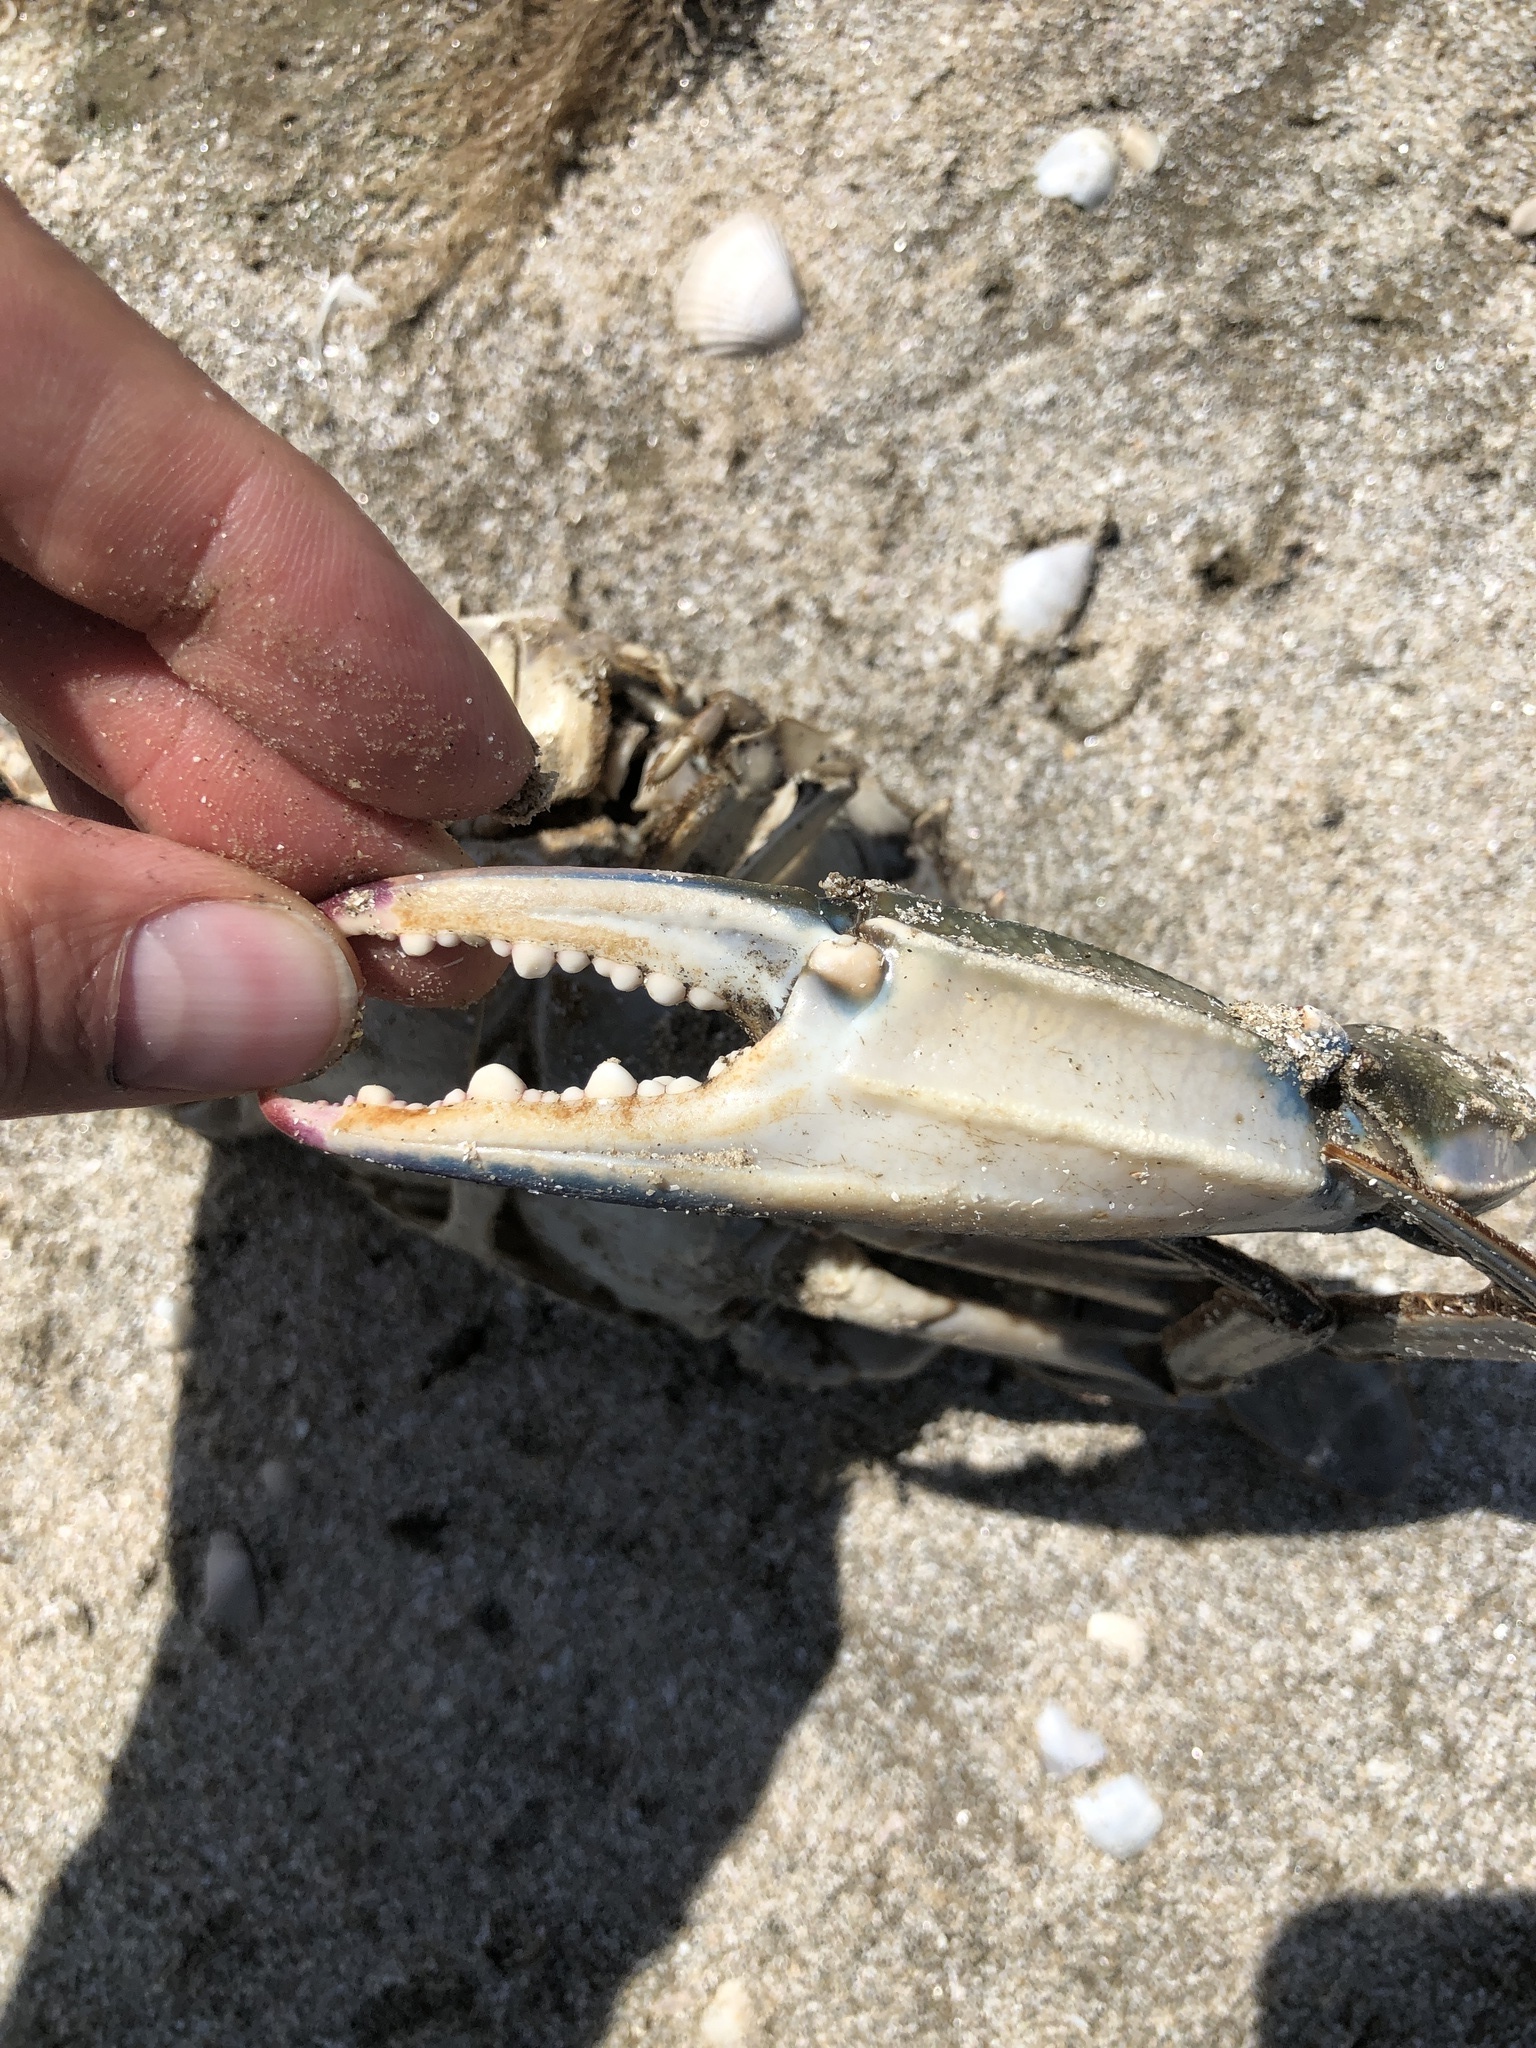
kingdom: Animalia
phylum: Arthropoda
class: Malacostraca
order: Decapoda
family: Portunidae
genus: Callinectes
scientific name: Callinectes sapidus
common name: Blue crab
